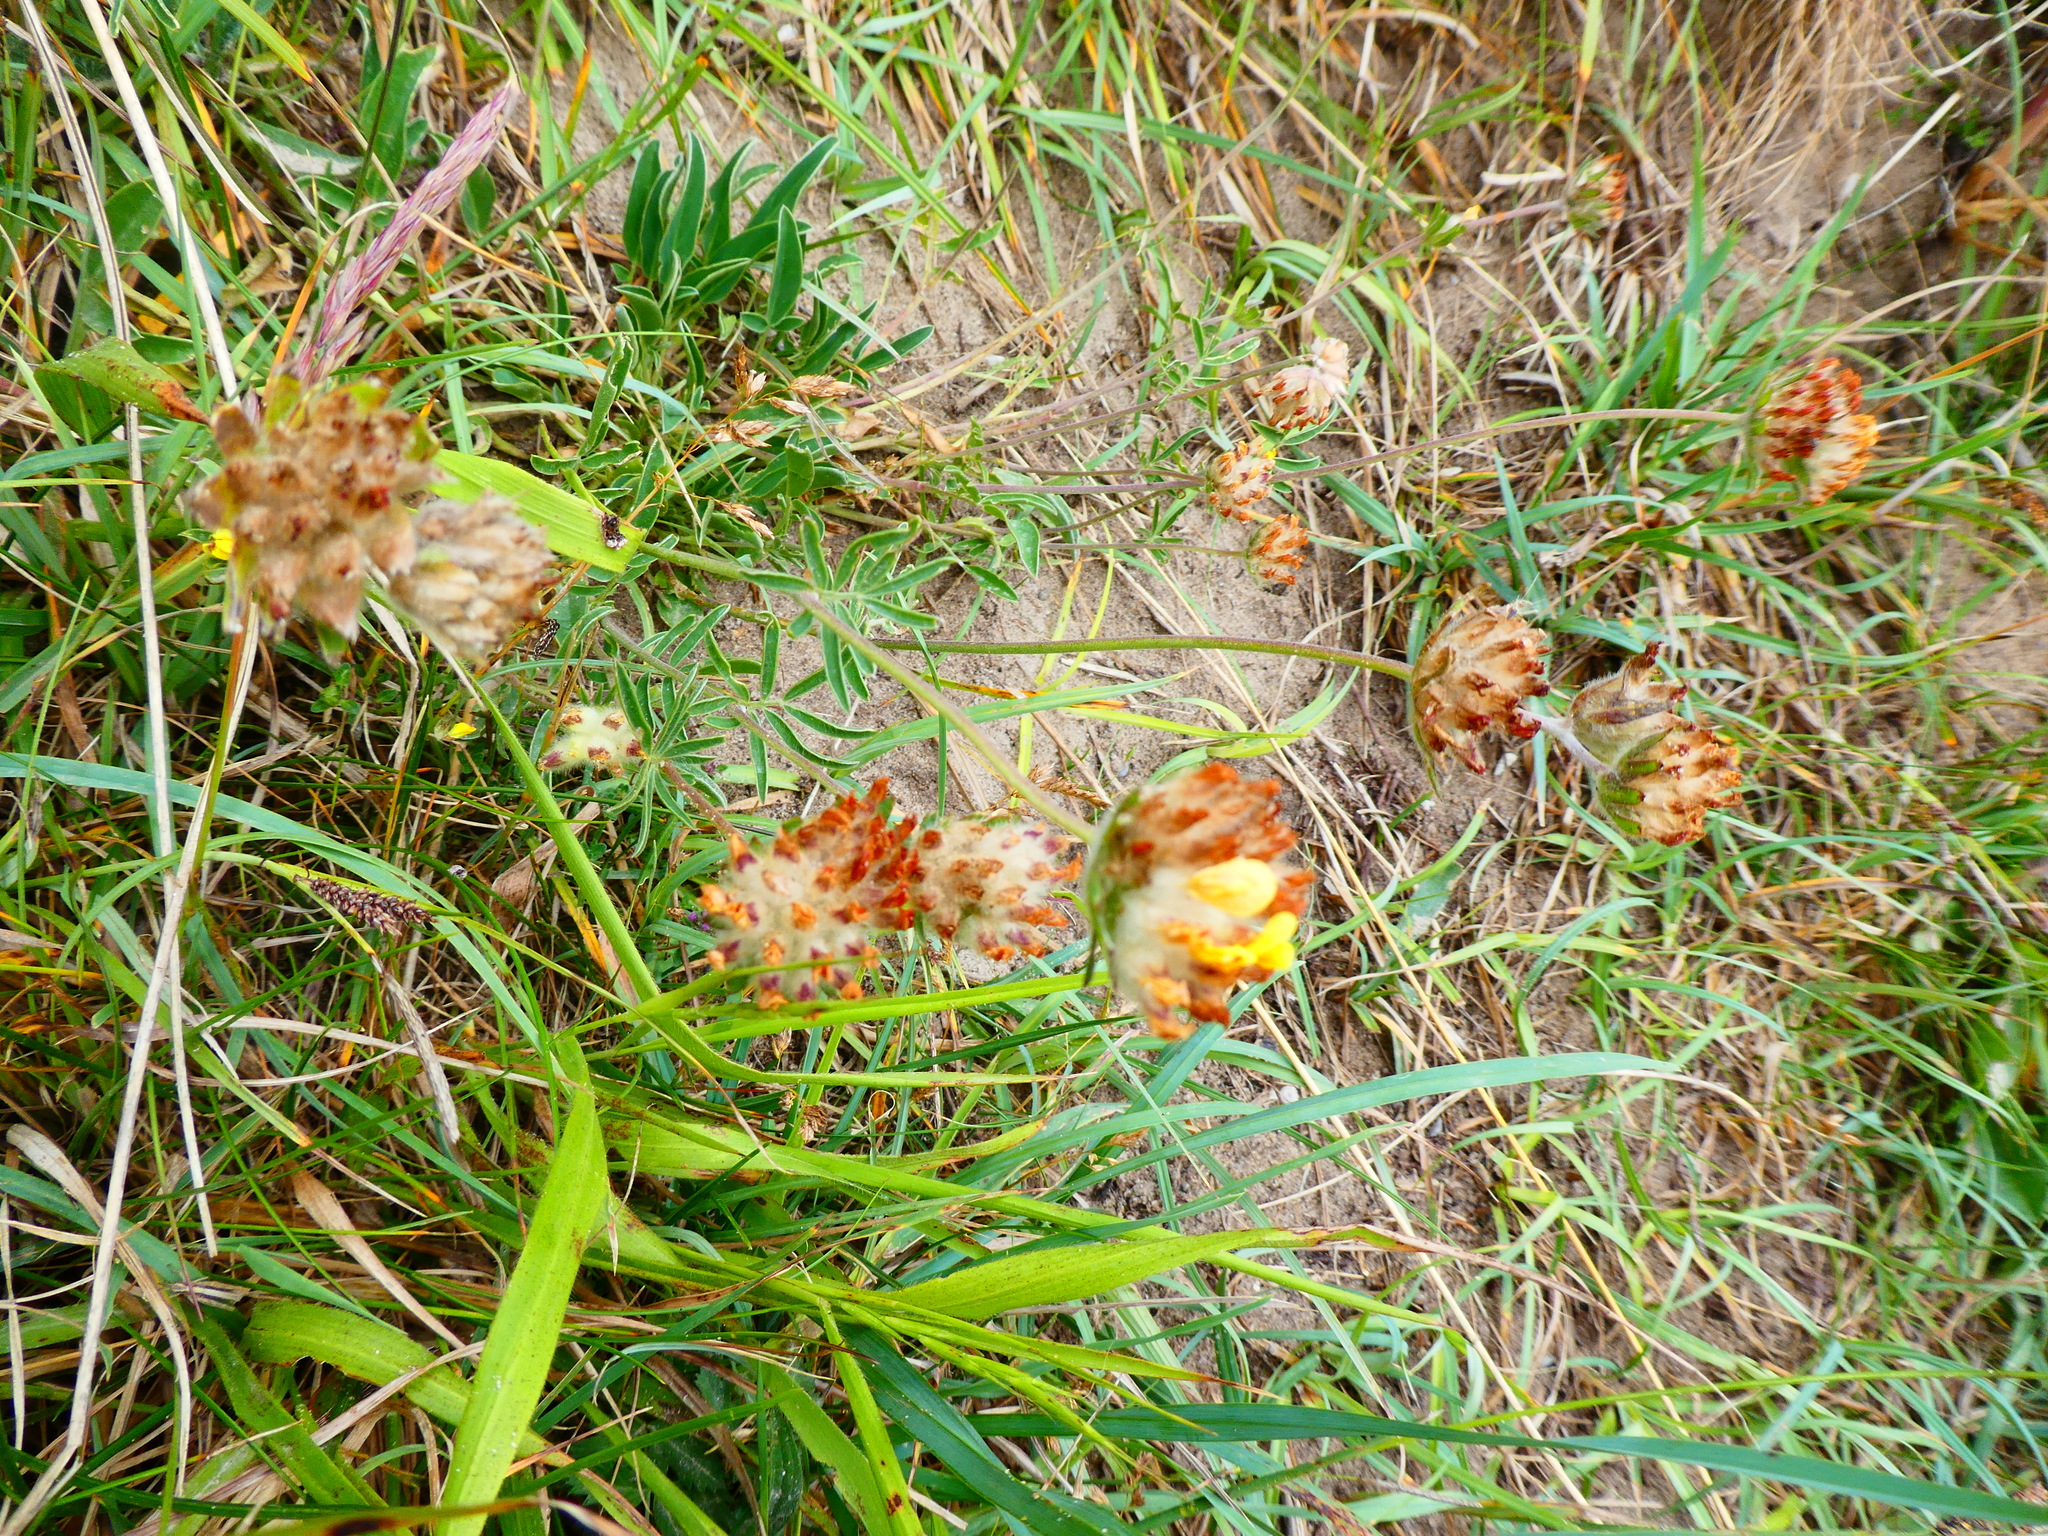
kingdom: Plantae
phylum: Tracheophyta
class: Magnoliopsida
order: Fabales
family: Fabaceae
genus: Anthyllis
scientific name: Anthyllis vulneraria
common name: Kidney vetch
